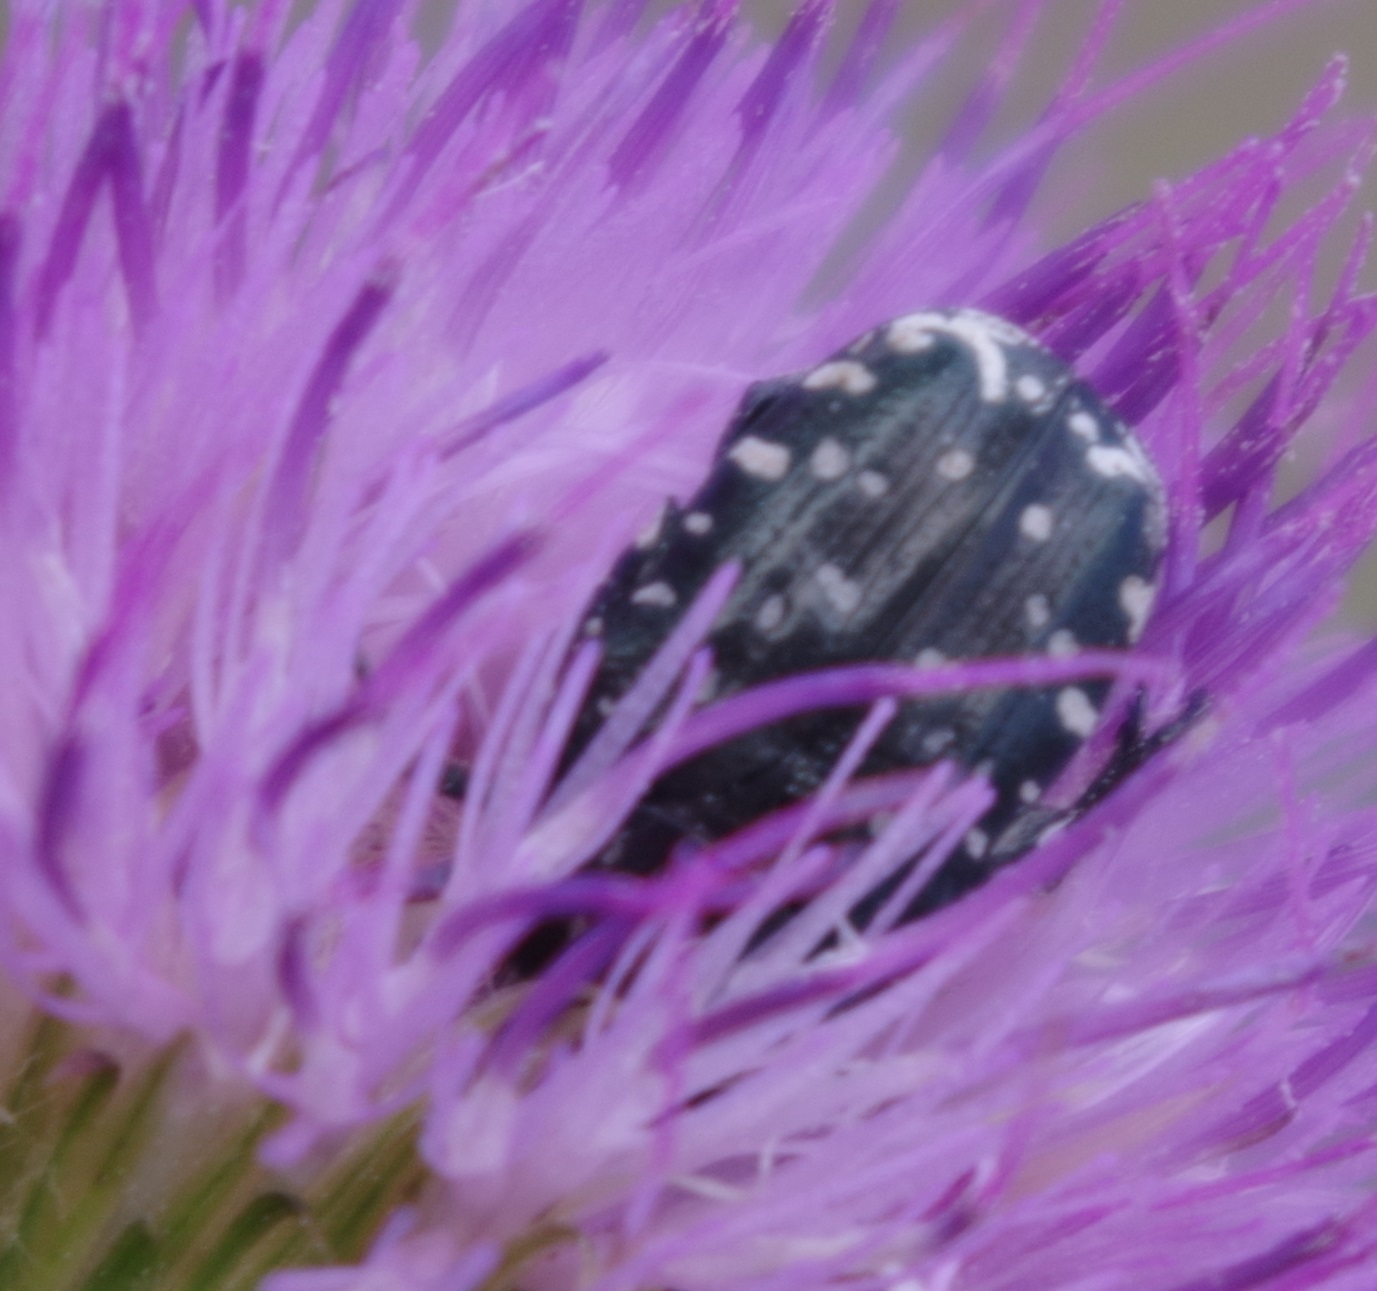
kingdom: Animalia
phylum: Arthropoda
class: Insecta
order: Coleoptera
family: Scarabaeidae
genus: Oxythyrea
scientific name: Oxythyrea funesta
